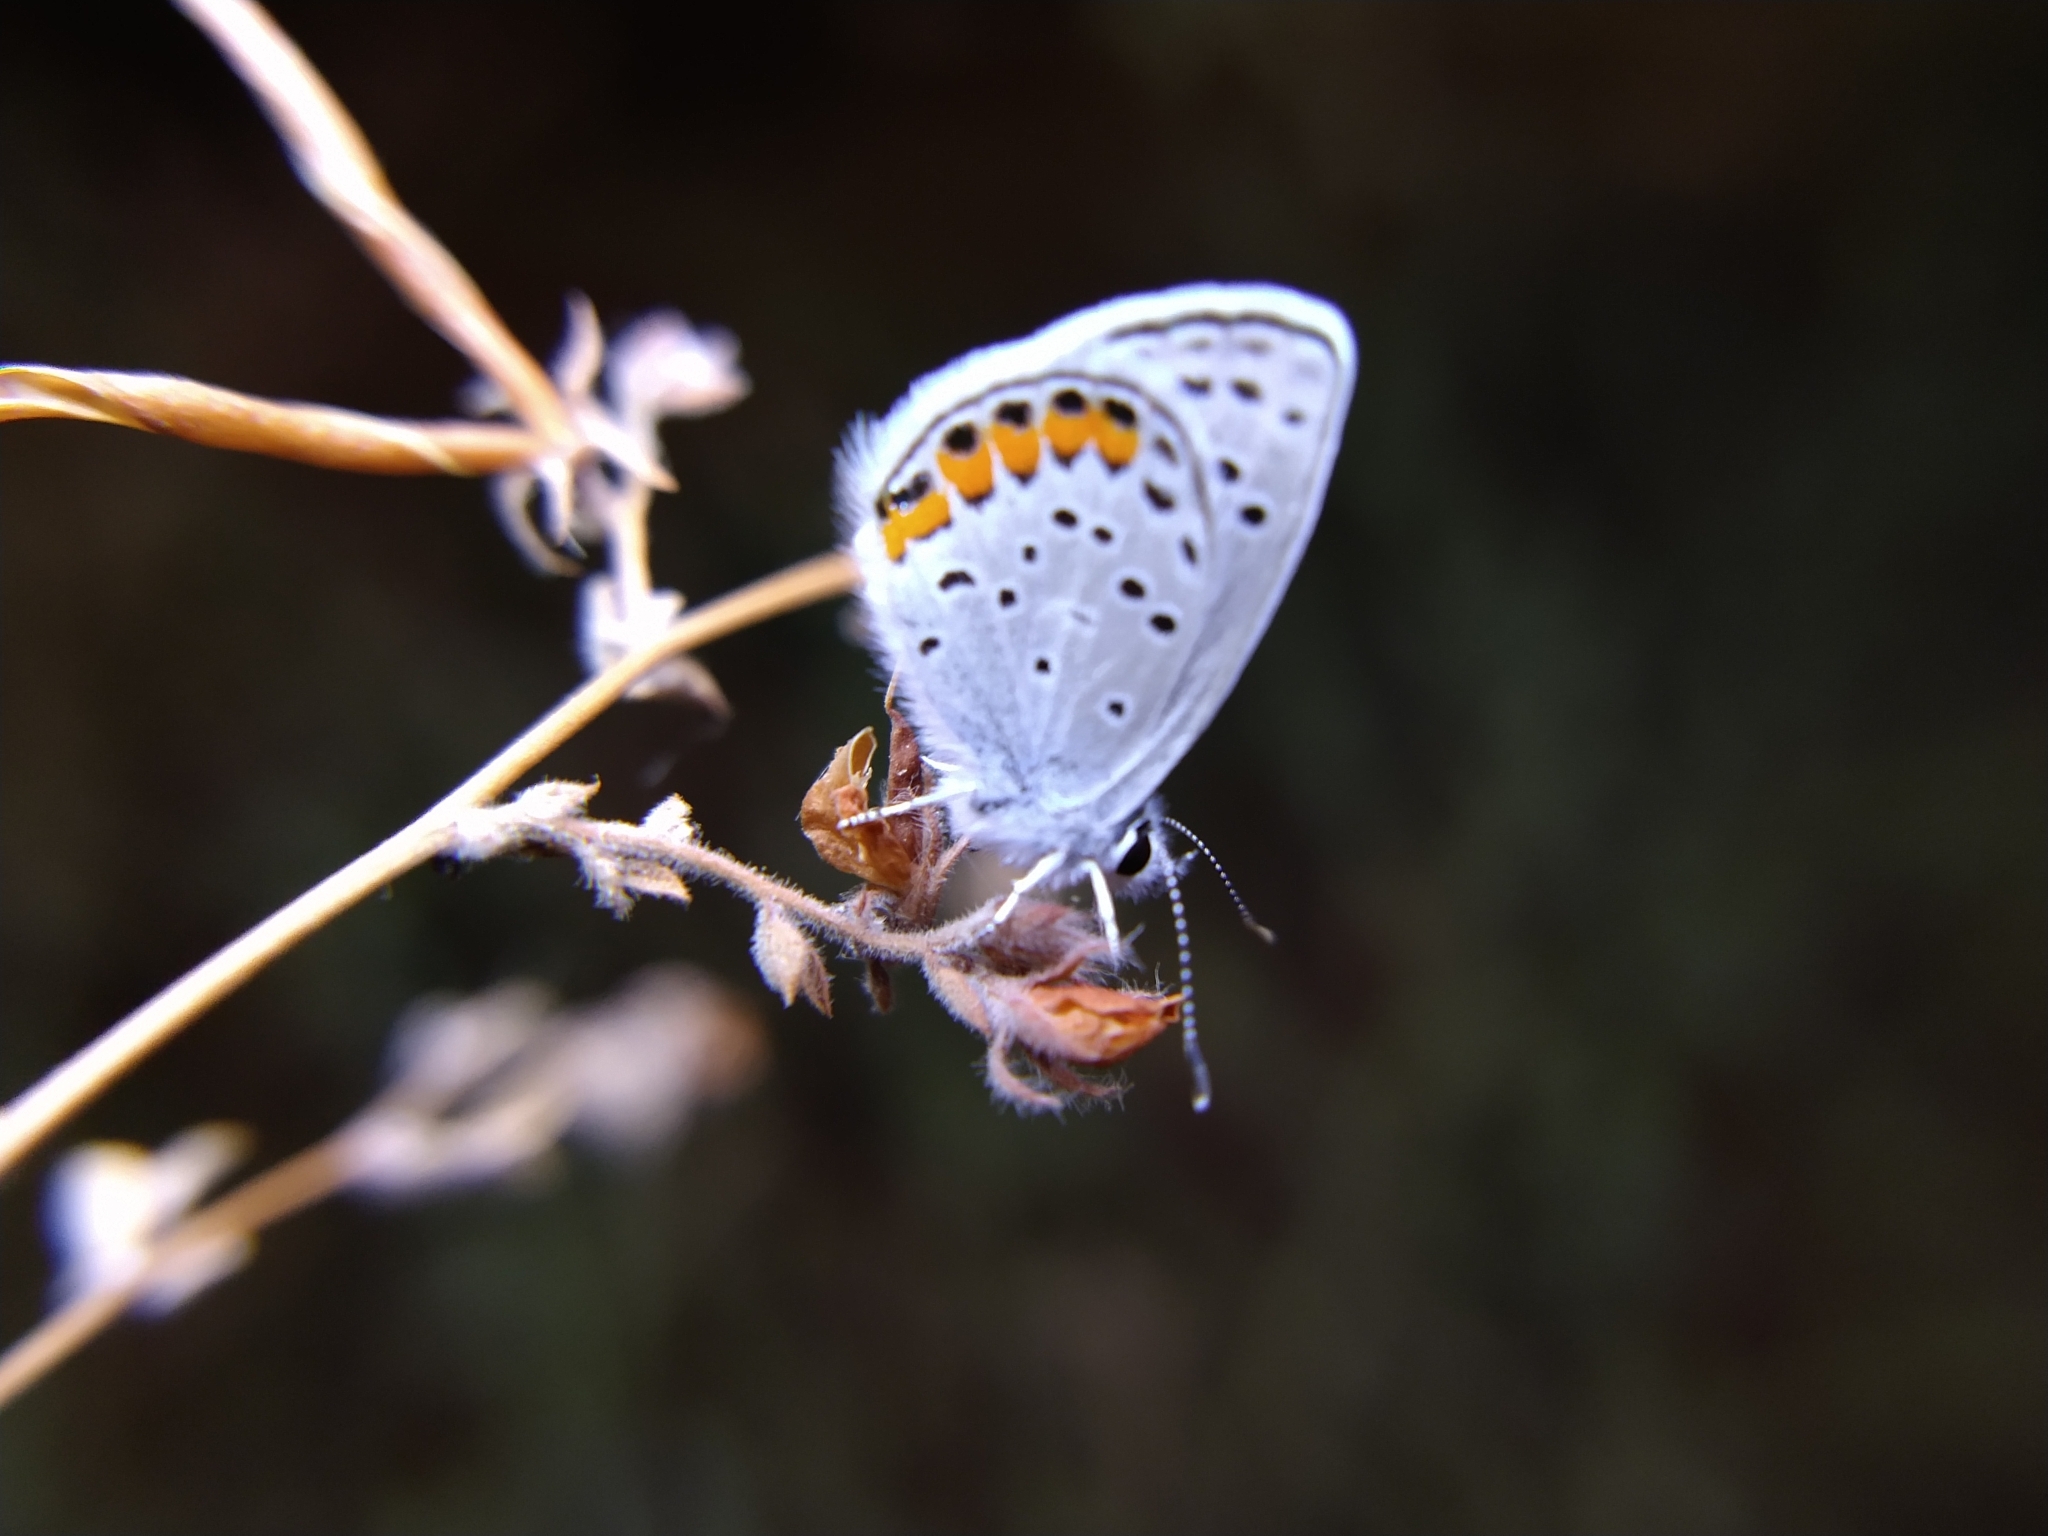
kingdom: Animalia
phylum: Arthropoda
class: Insecta
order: Lepidoptera
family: Lycaenidae
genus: Icaricia
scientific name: Icaricia acmon
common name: Acmon blue
